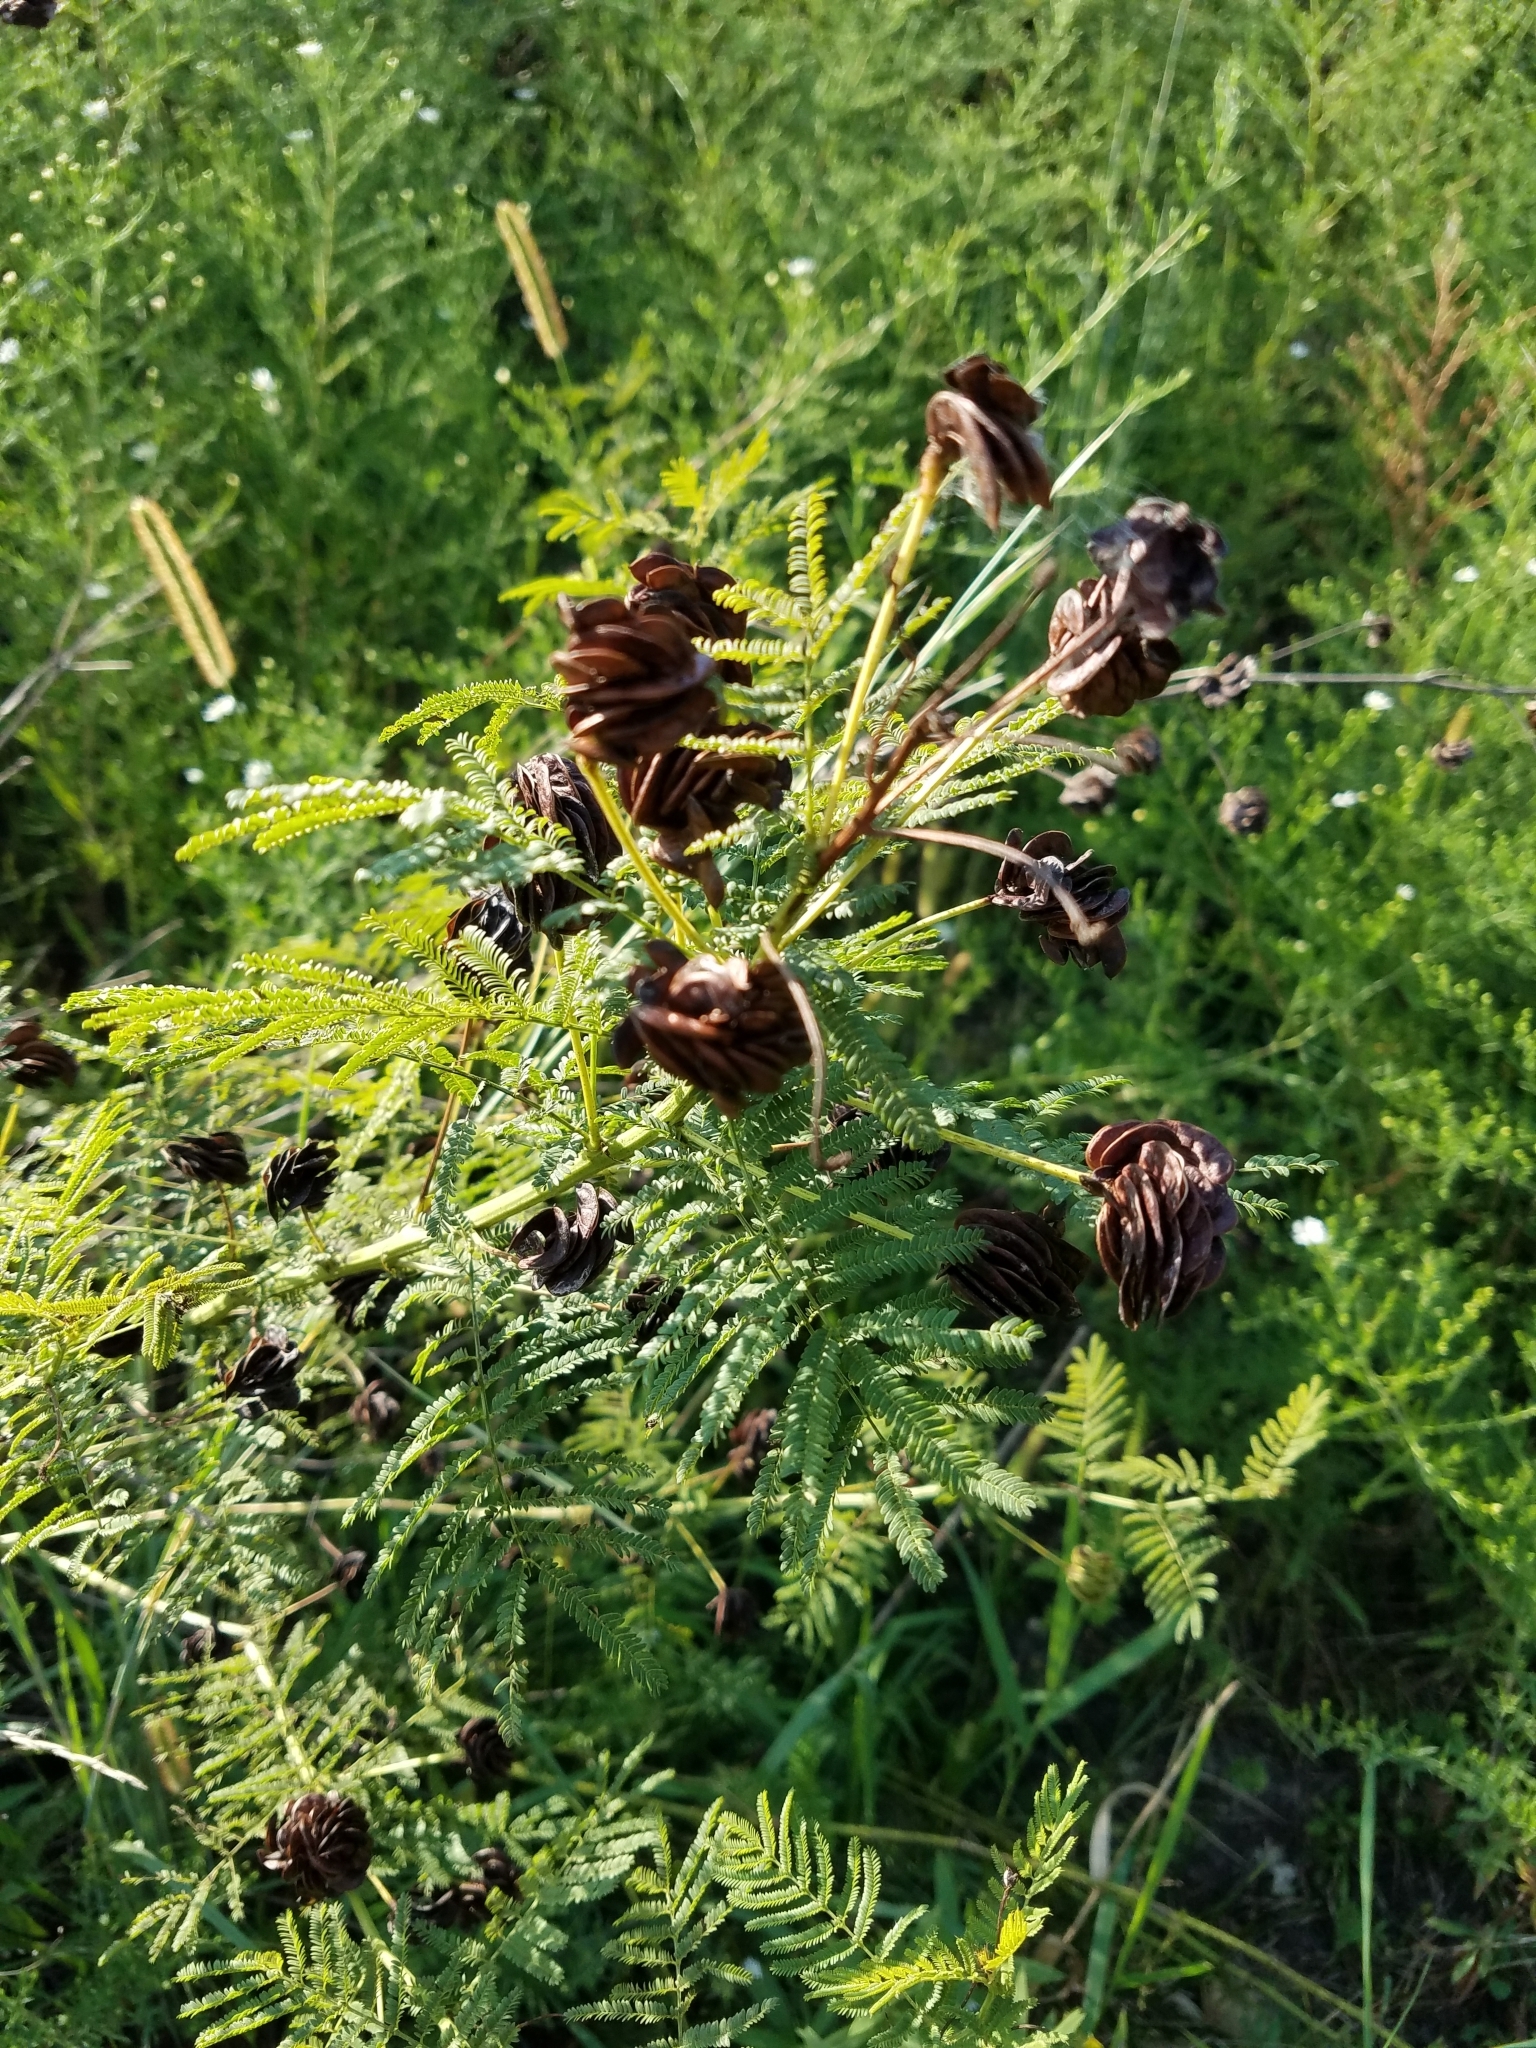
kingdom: Plantae
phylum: Tracheophyta
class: Magnoliopsida
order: Fabales
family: Fabaceae
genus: Desmanthus
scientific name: Desmanthus illinoensis
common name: Illinois bundle-flower
